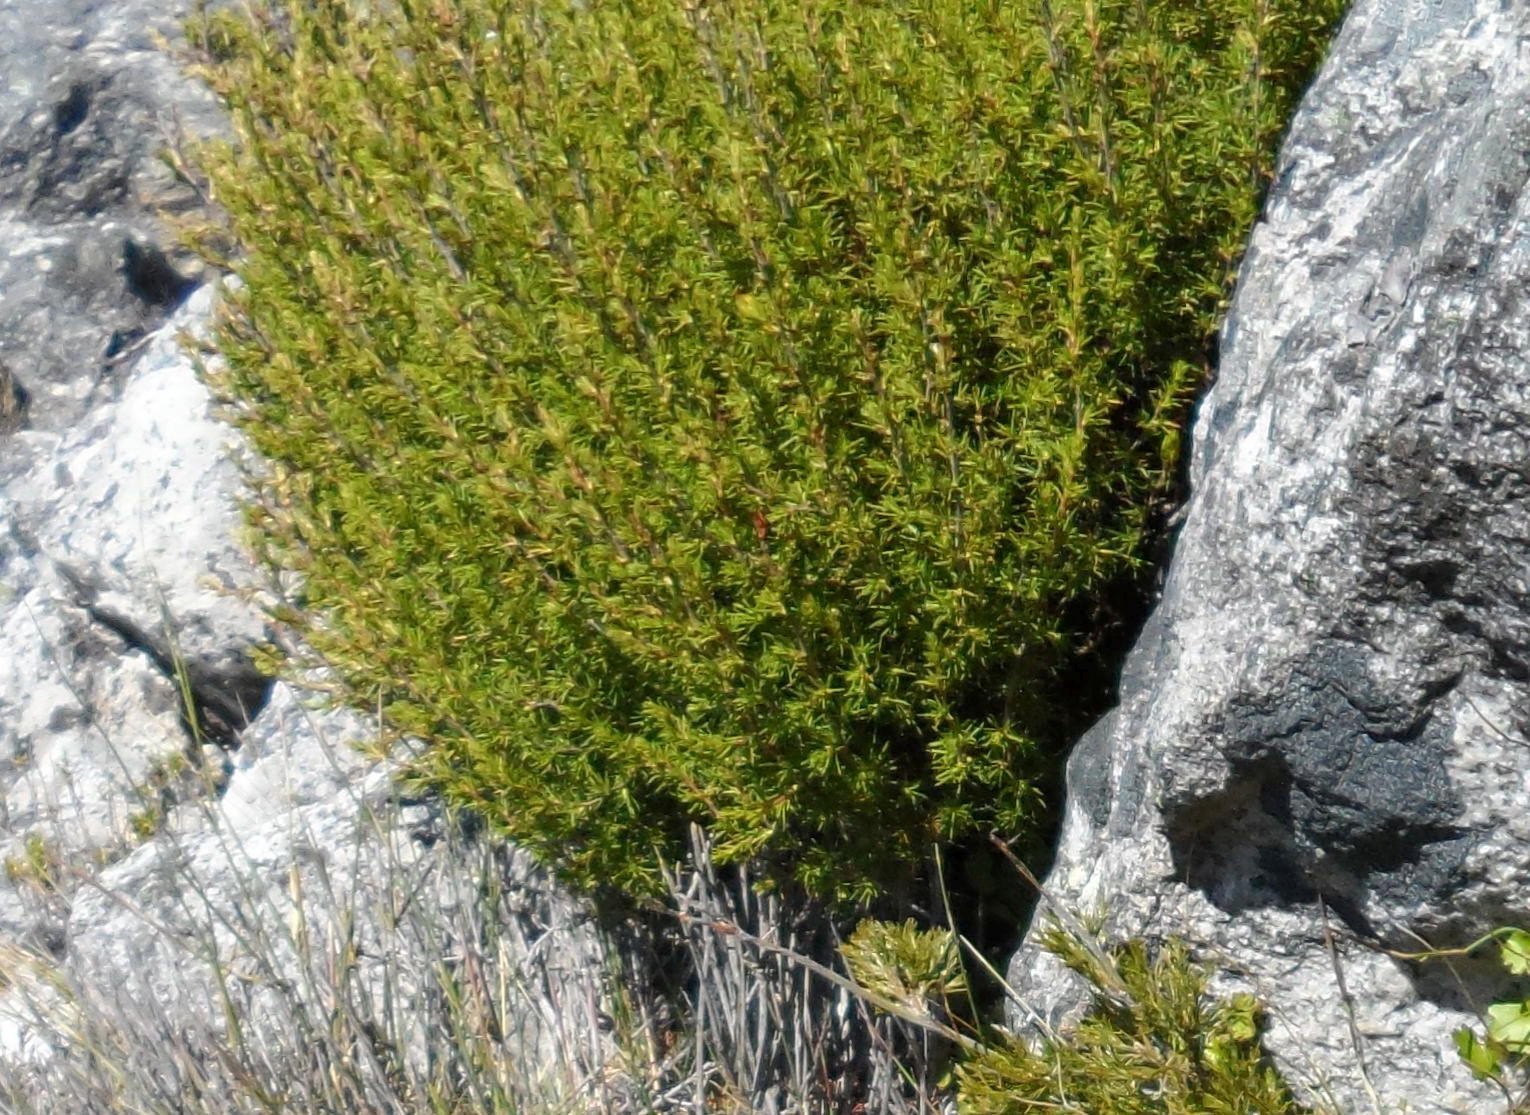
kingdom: Plantae
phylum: Tracheophyta
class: Magnoliopsida
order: Rosales
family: Rosaceae
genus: Cliffortia
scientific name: Cliffortia tuberculata
